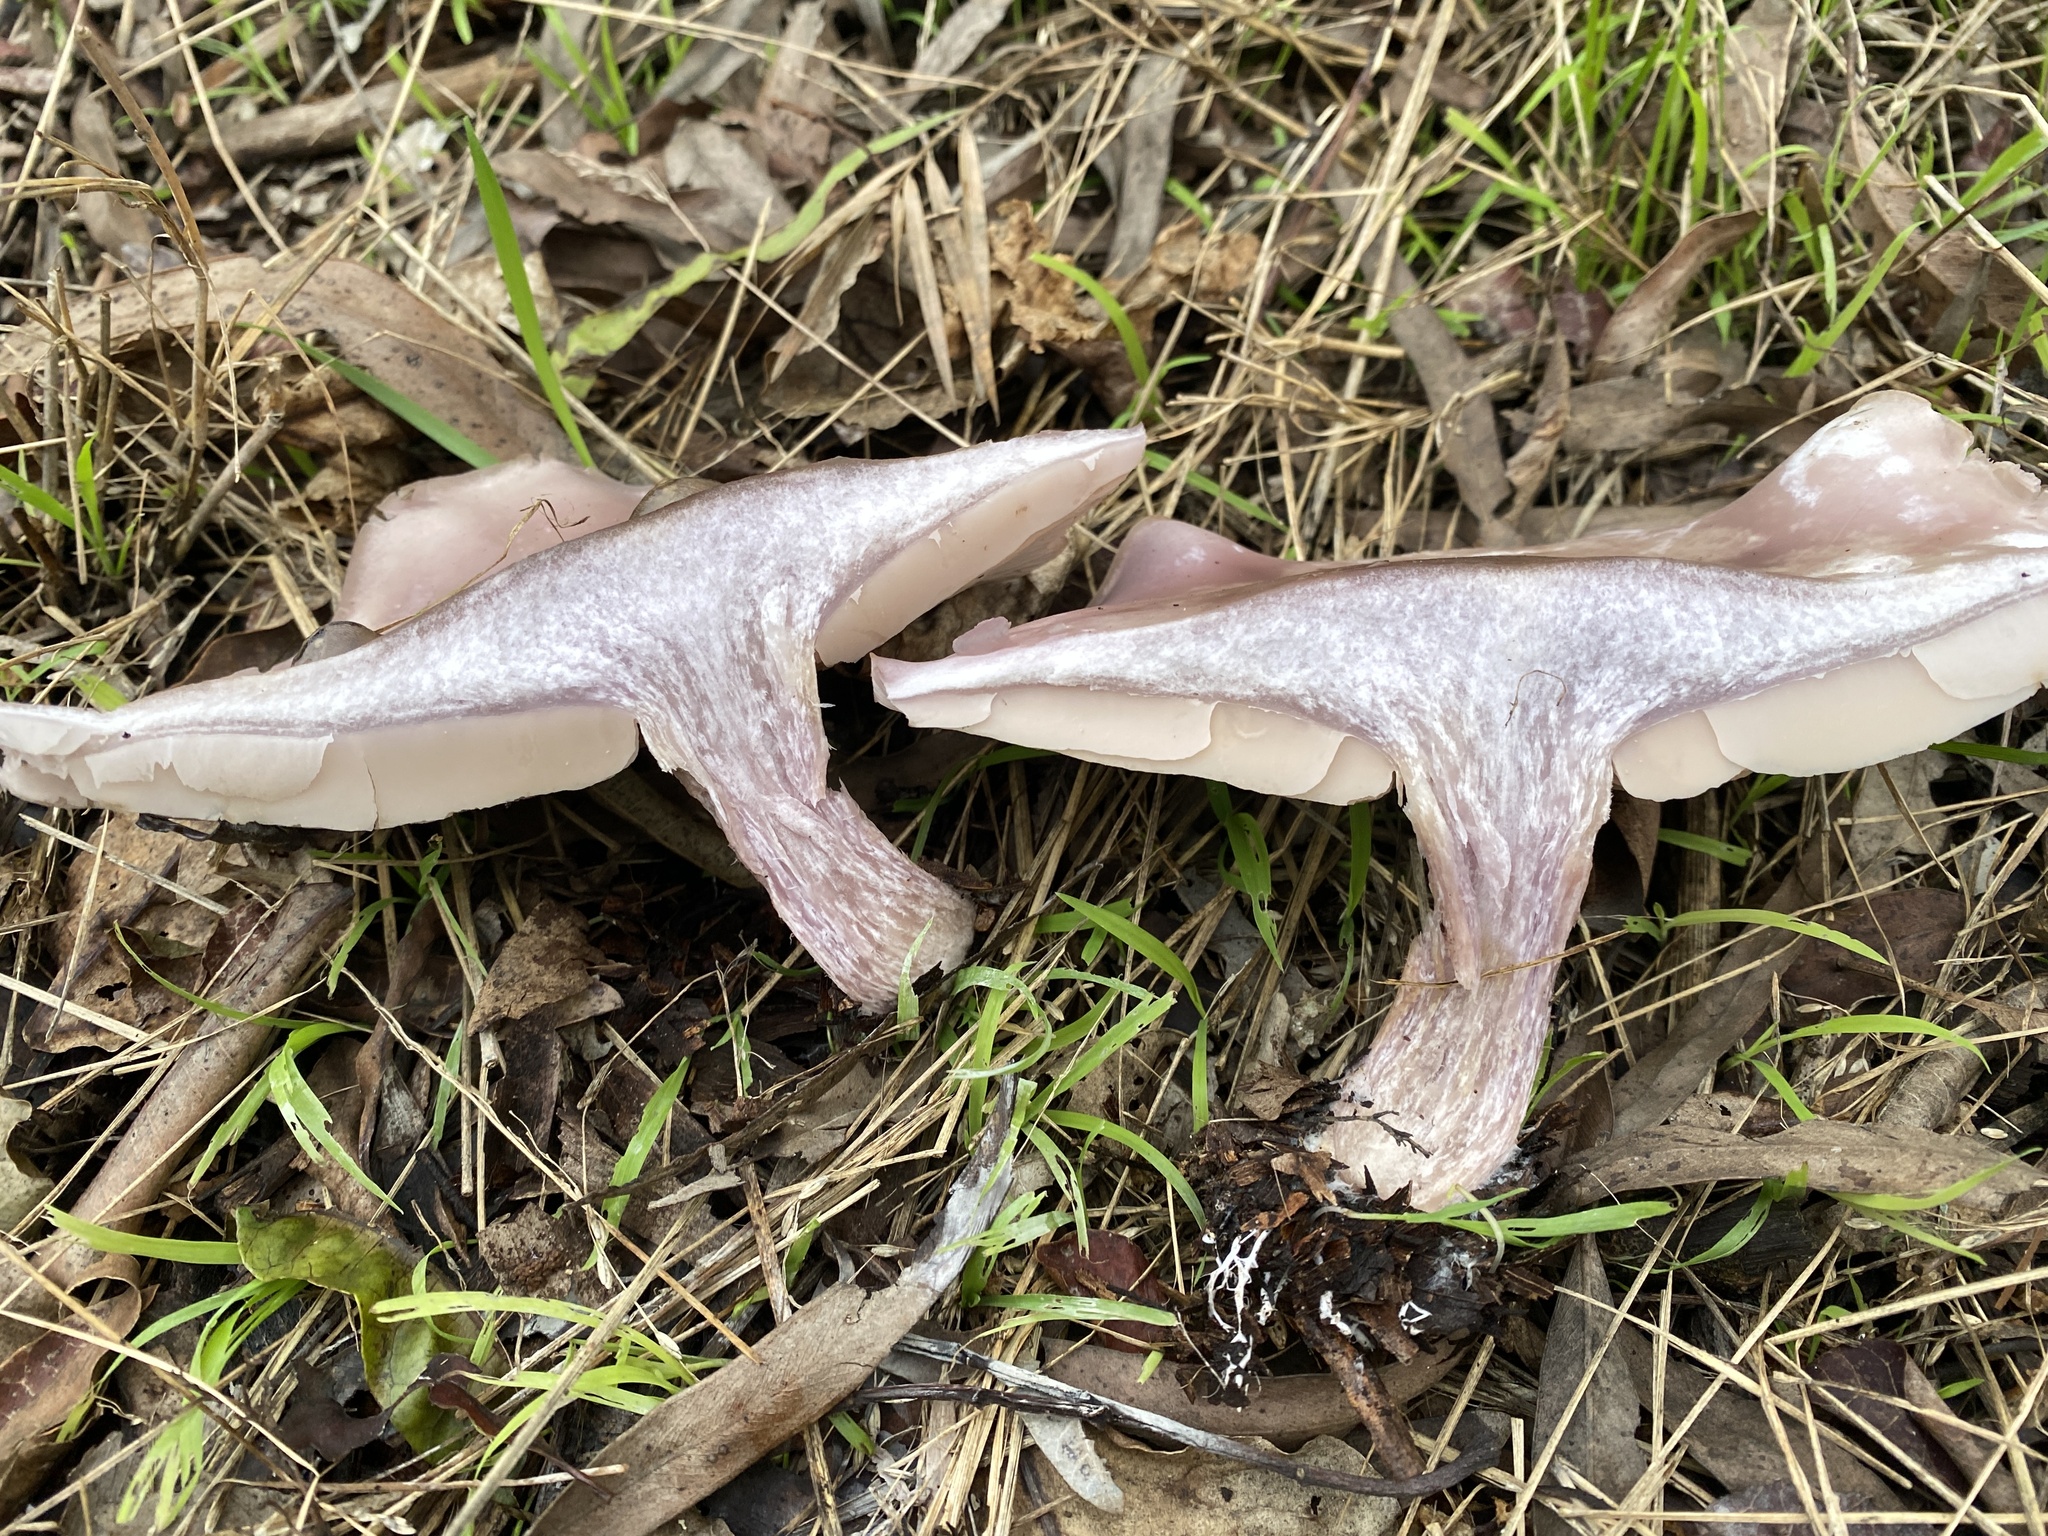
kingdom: Fungi
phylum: Basidiomycota
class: Agaricomycetes
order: Agaricales
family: Tricholomataceae
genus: Collybia
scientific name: Collybia
